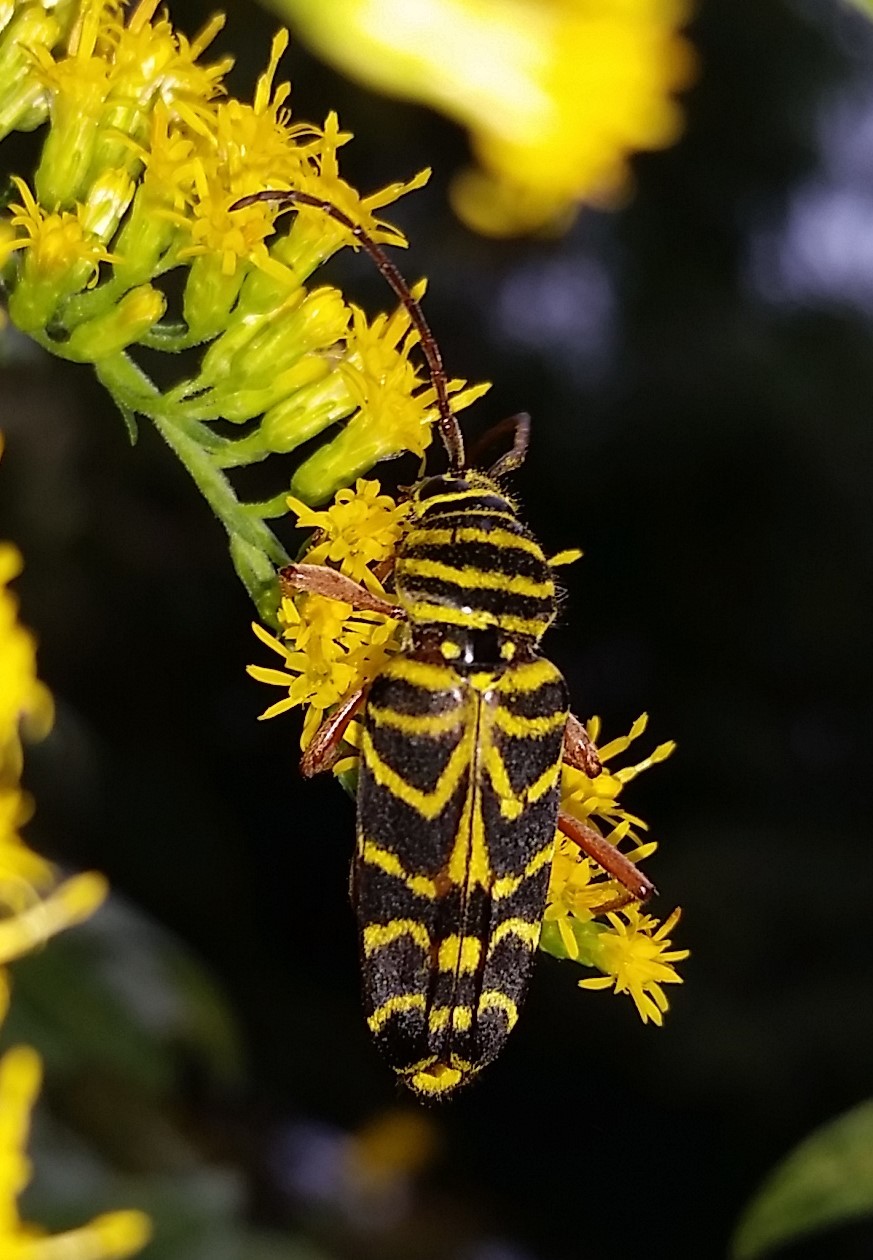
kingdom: Animalia
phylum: Arthropoda
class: Insecta
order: Coleoptera
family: Cerambycidae
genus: Megacyllene
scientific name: Megacyllene robiniae
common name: Locust borer
